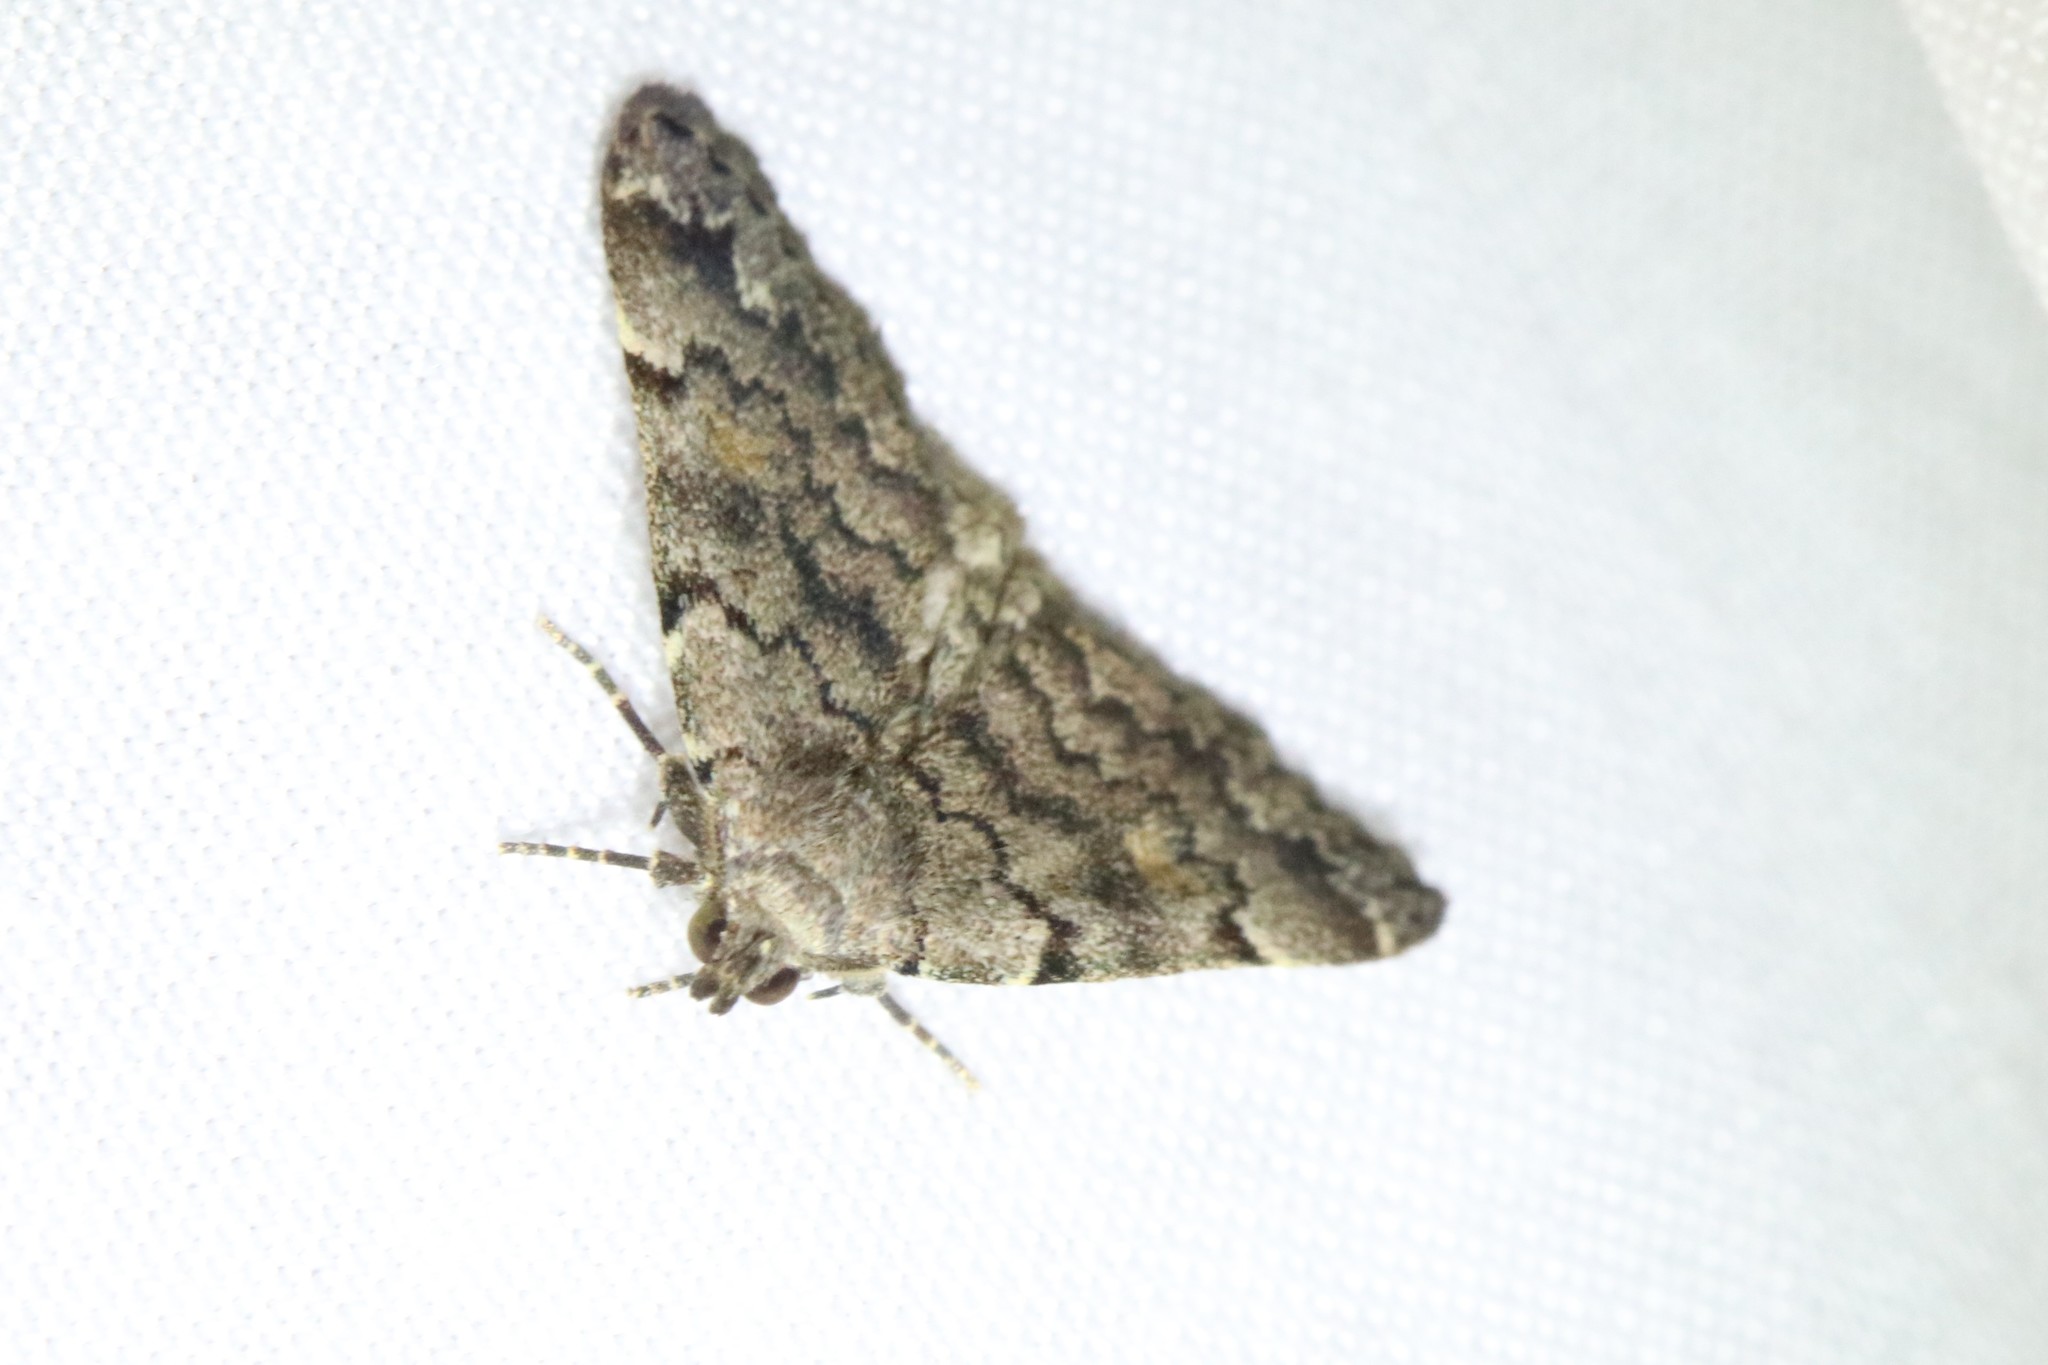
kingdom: Animalia
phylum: Arthropoda
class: Insecta
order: Lepidoptera
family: Erebidae
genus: Idia
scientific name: Idia americalis
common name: American idia moth
